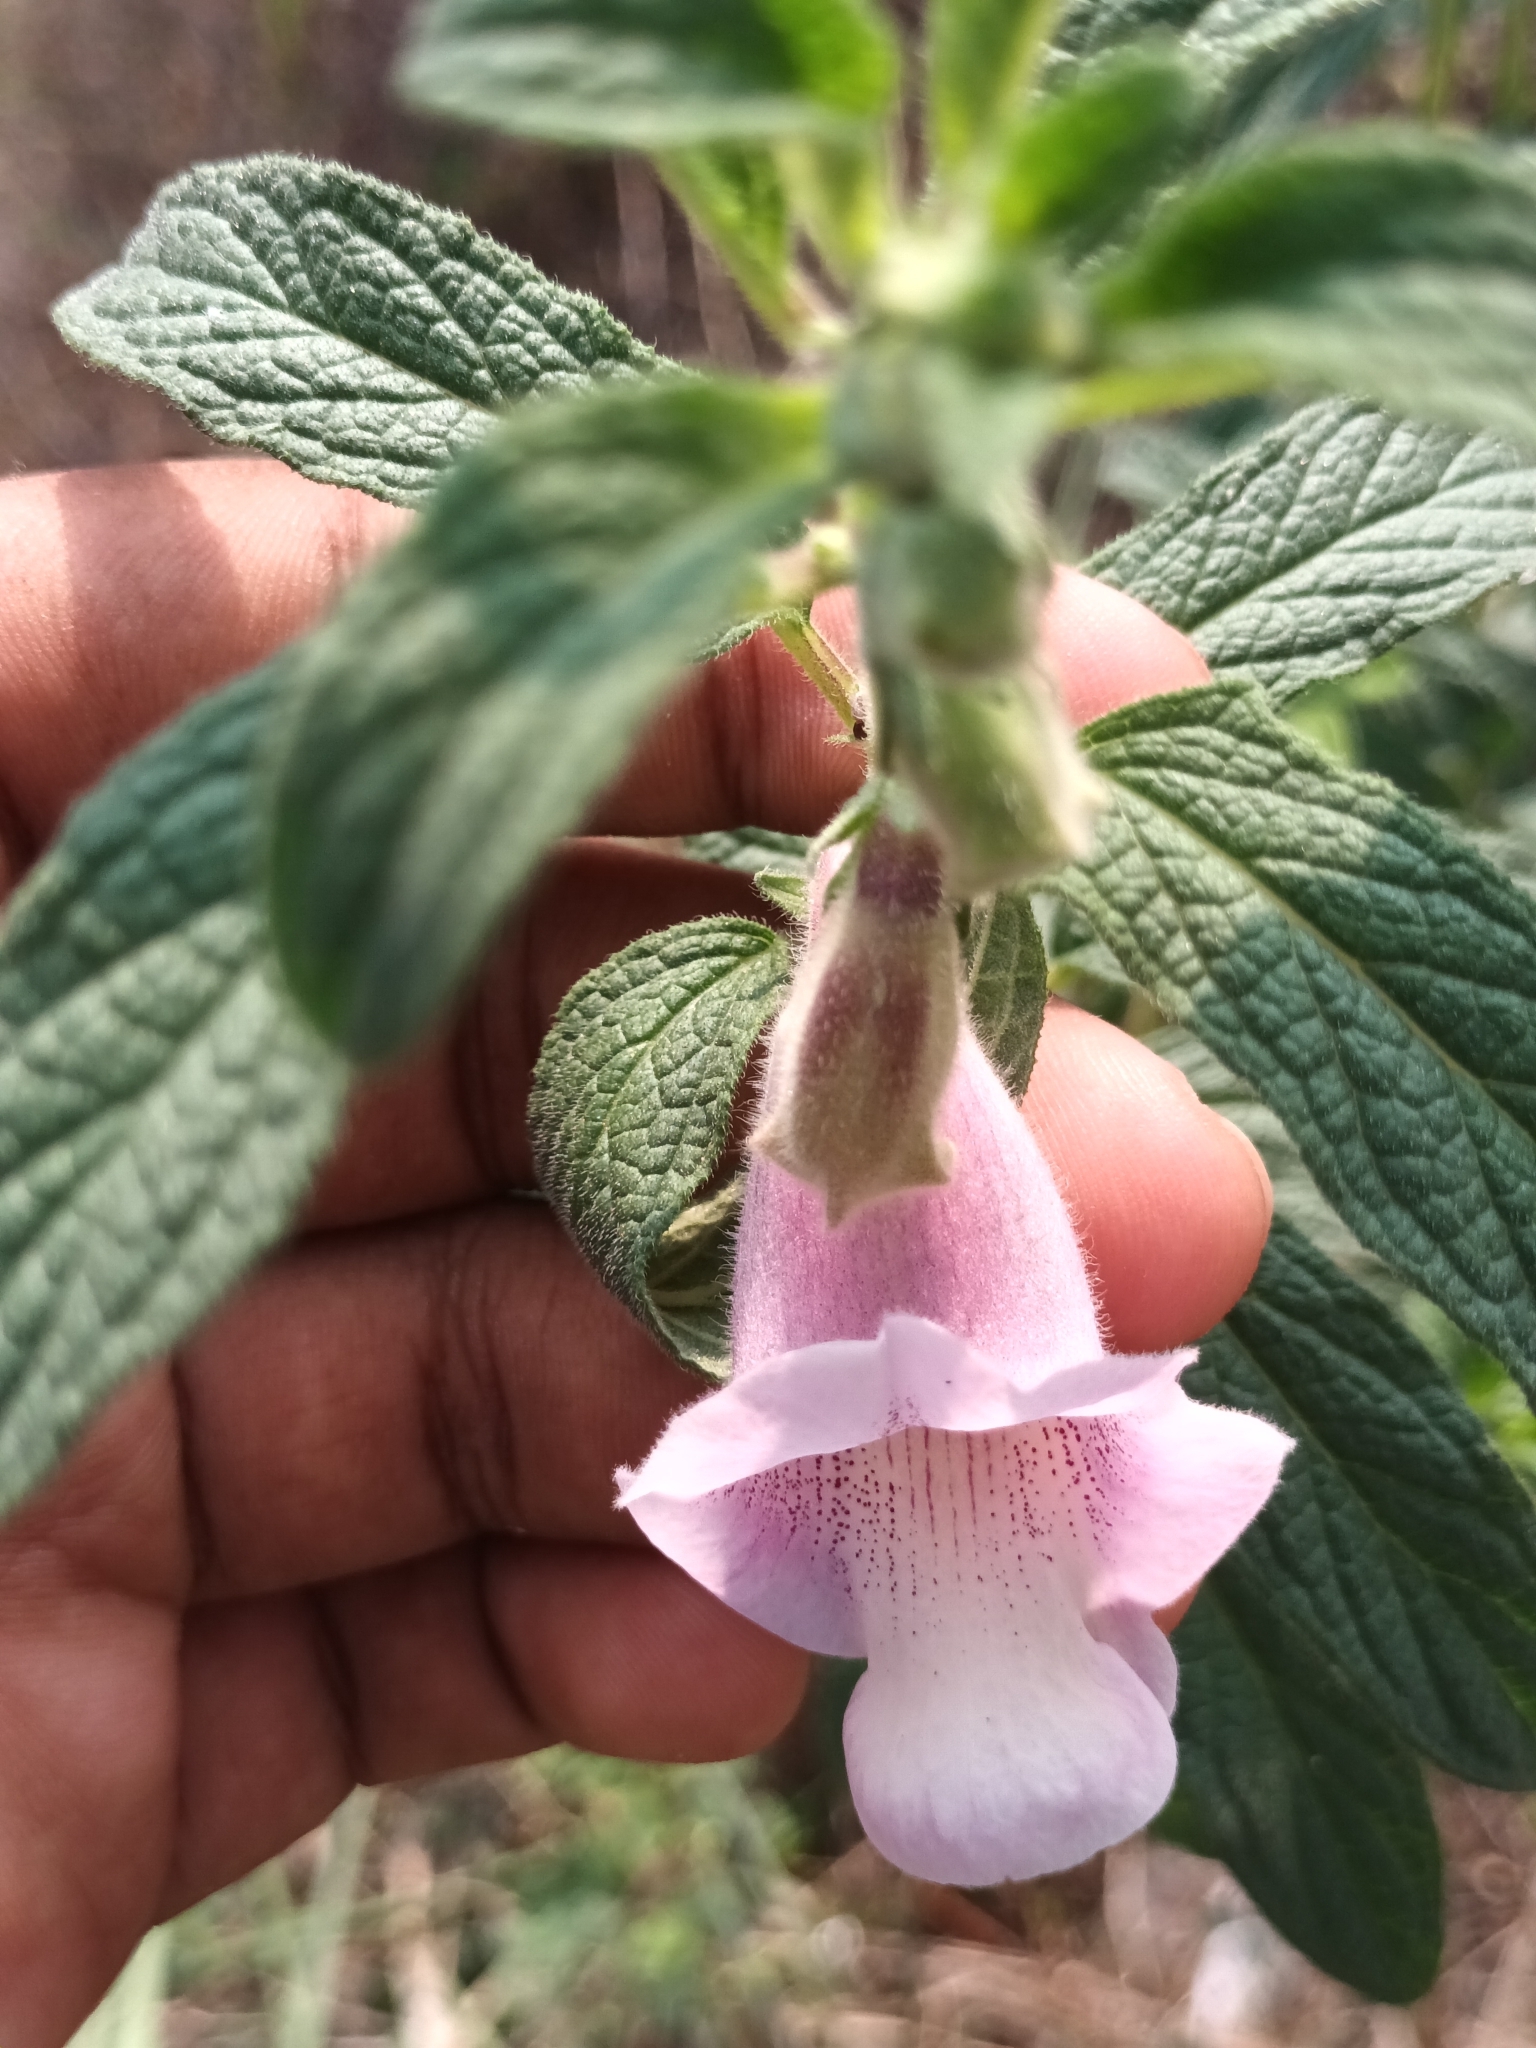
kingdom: Plantae
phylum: Tracheophyta
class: Magnoliopsida
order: Lamiales
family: Pedaliaceae
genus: Sesamum
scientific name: Sesamum indicum
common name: Sesame
